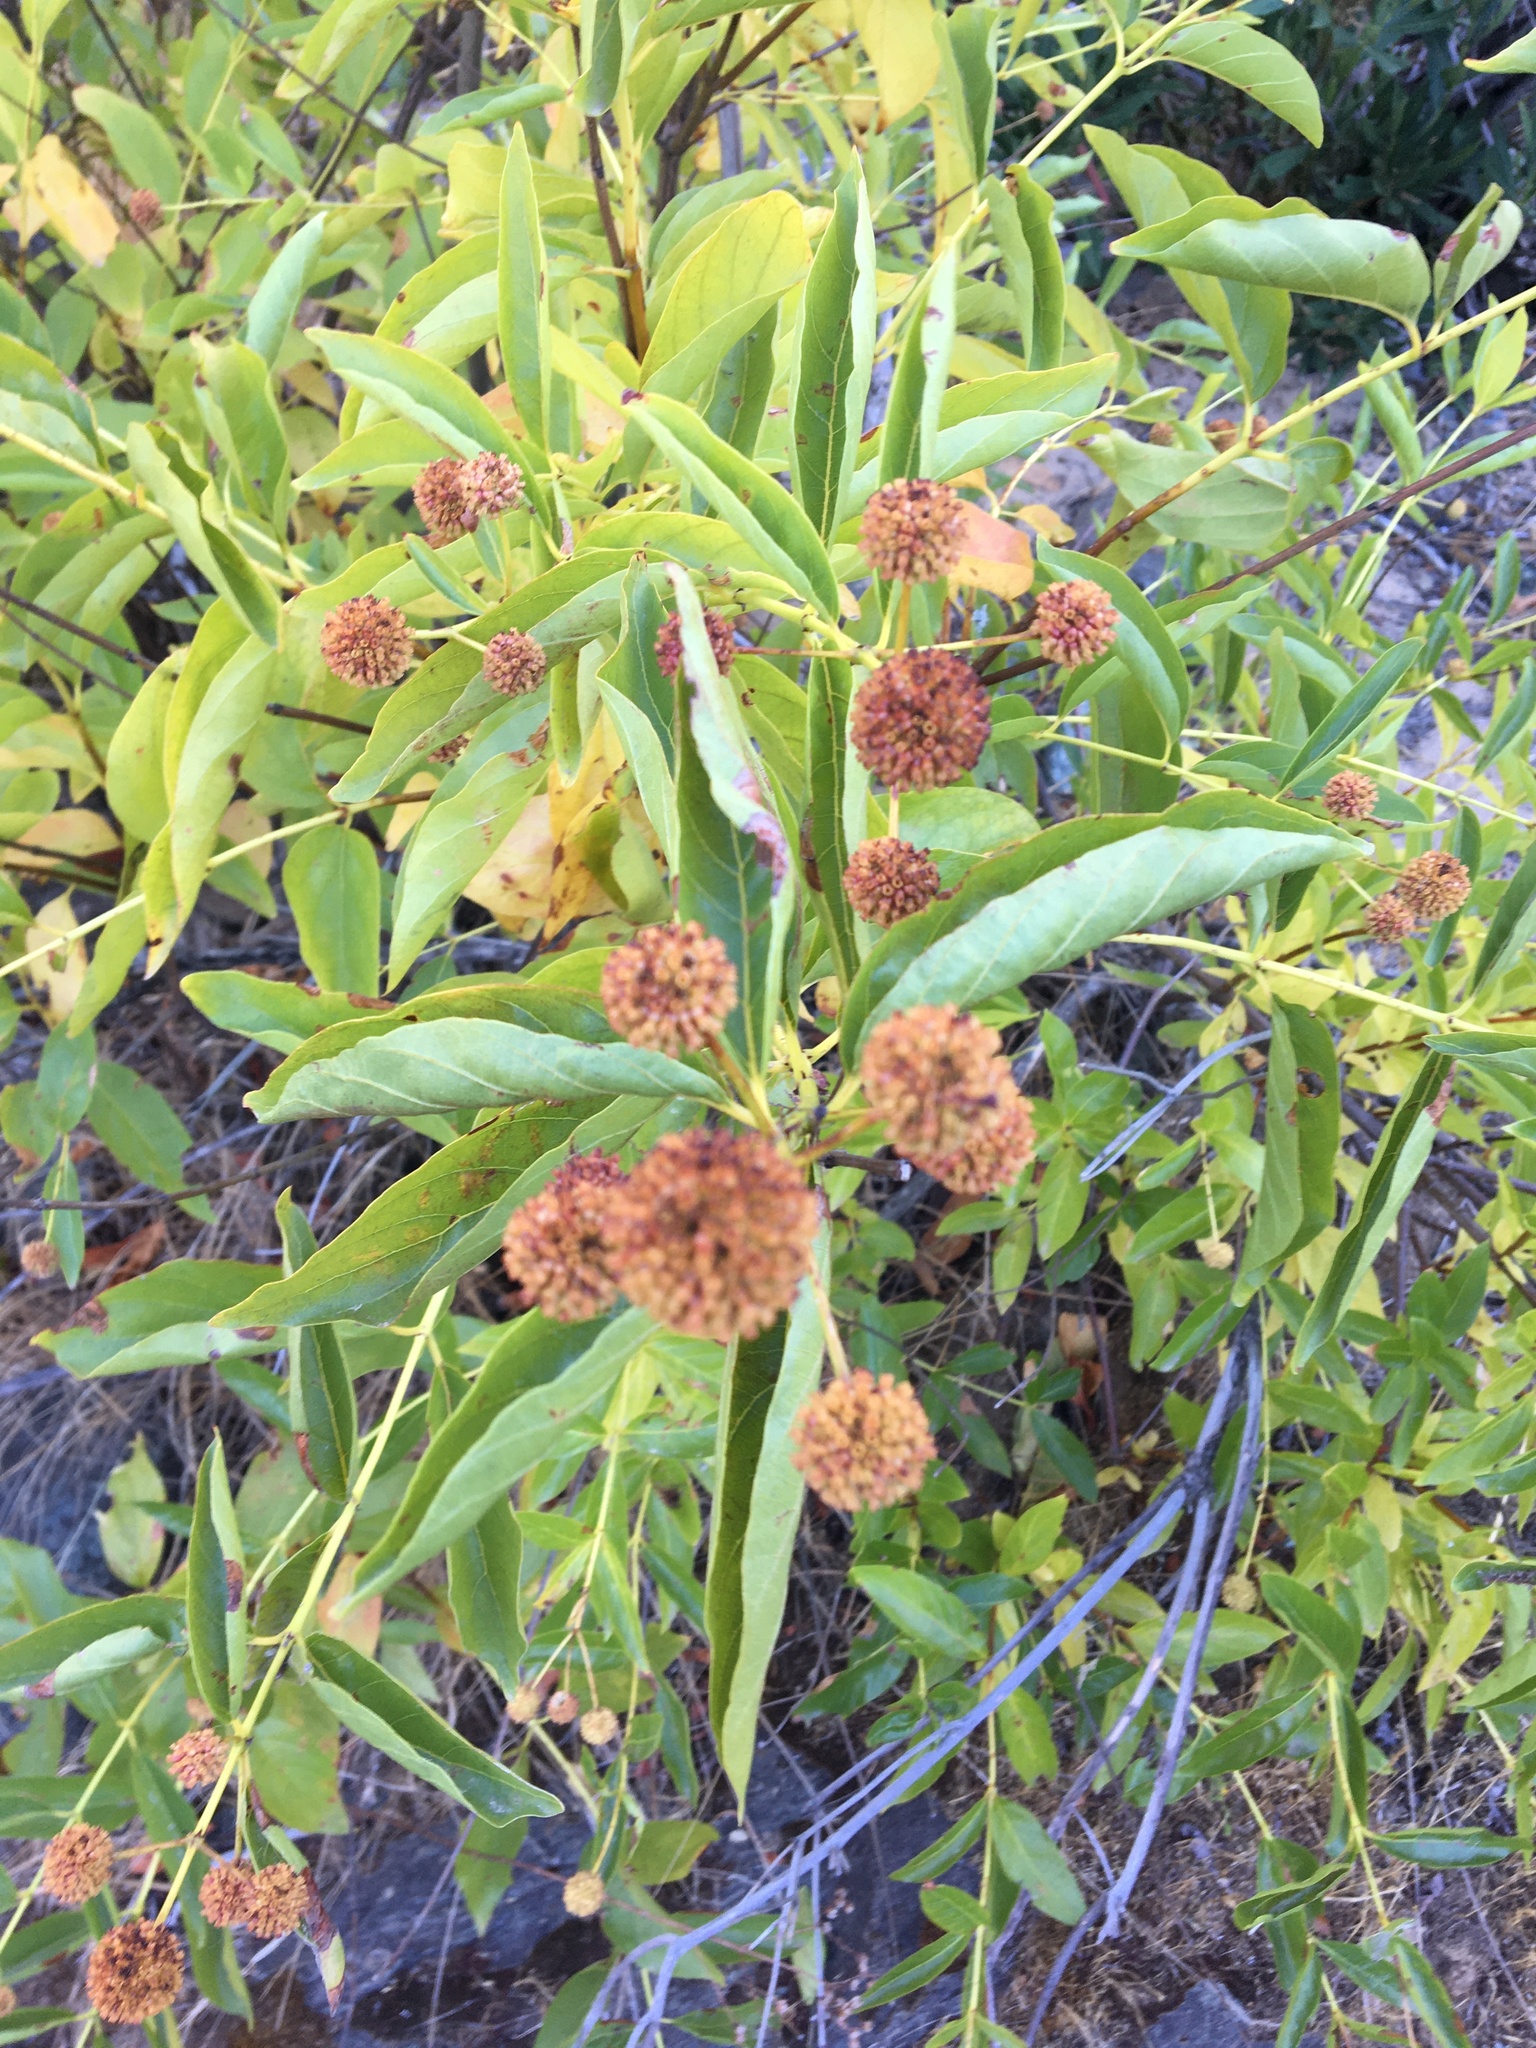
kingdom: Plantae
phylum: Tracheophyta
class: Magnoliopsida
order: Gentianales
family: Rubiaceae
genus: Cephalanthus
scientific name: Cephalanthus occidentalis
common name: Button-willow
